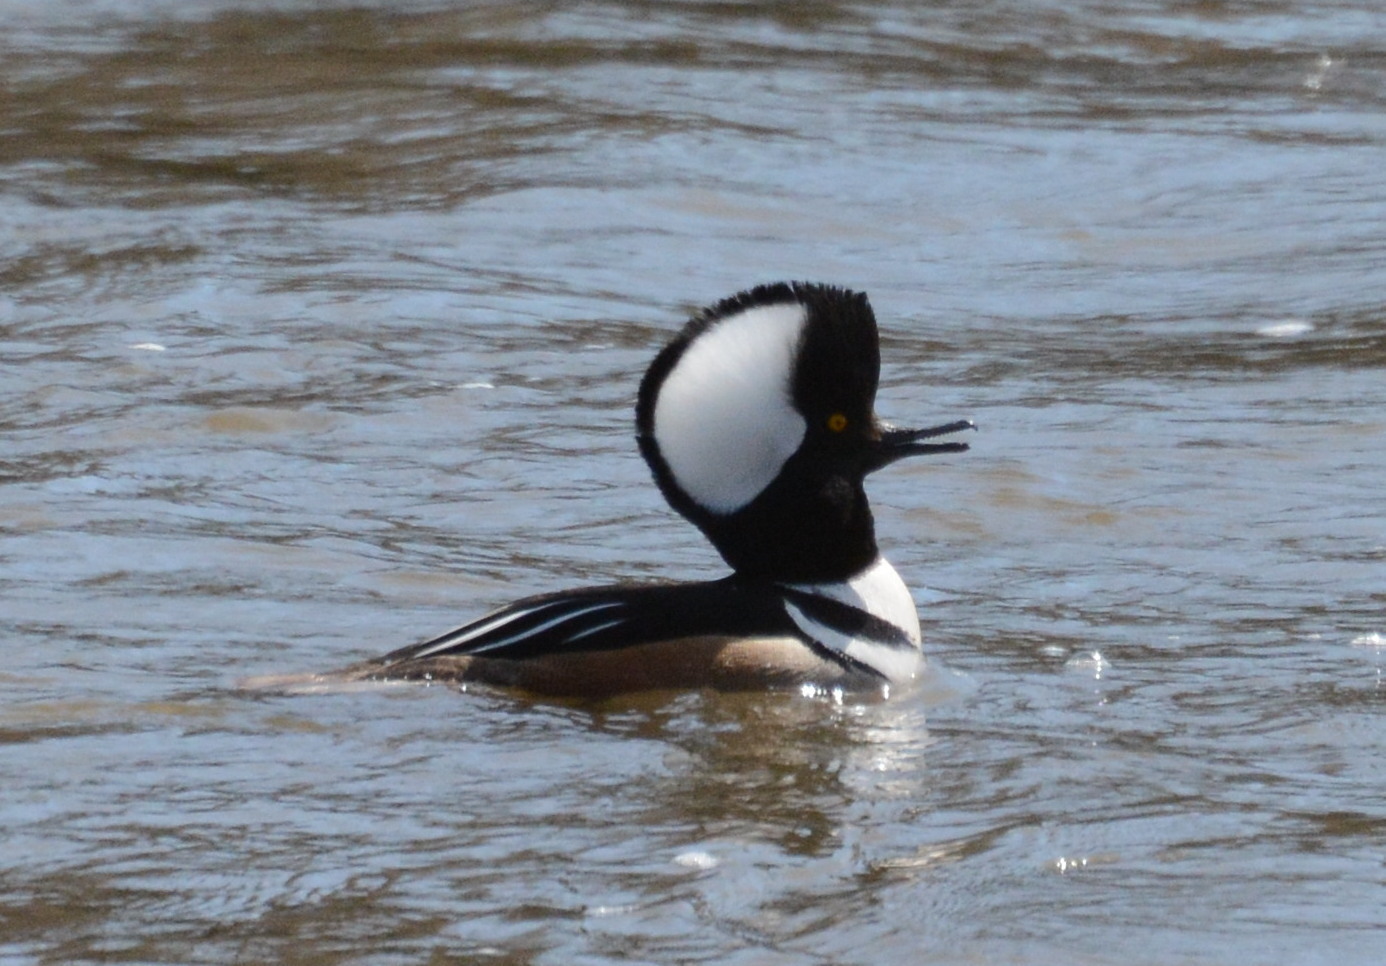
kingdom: Animalia
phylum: Chordata
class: Aves
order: Anseriformes
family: Anatidae
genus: Lophodytes
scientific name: Lophodytes cucullatus
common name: Hooded merganser
